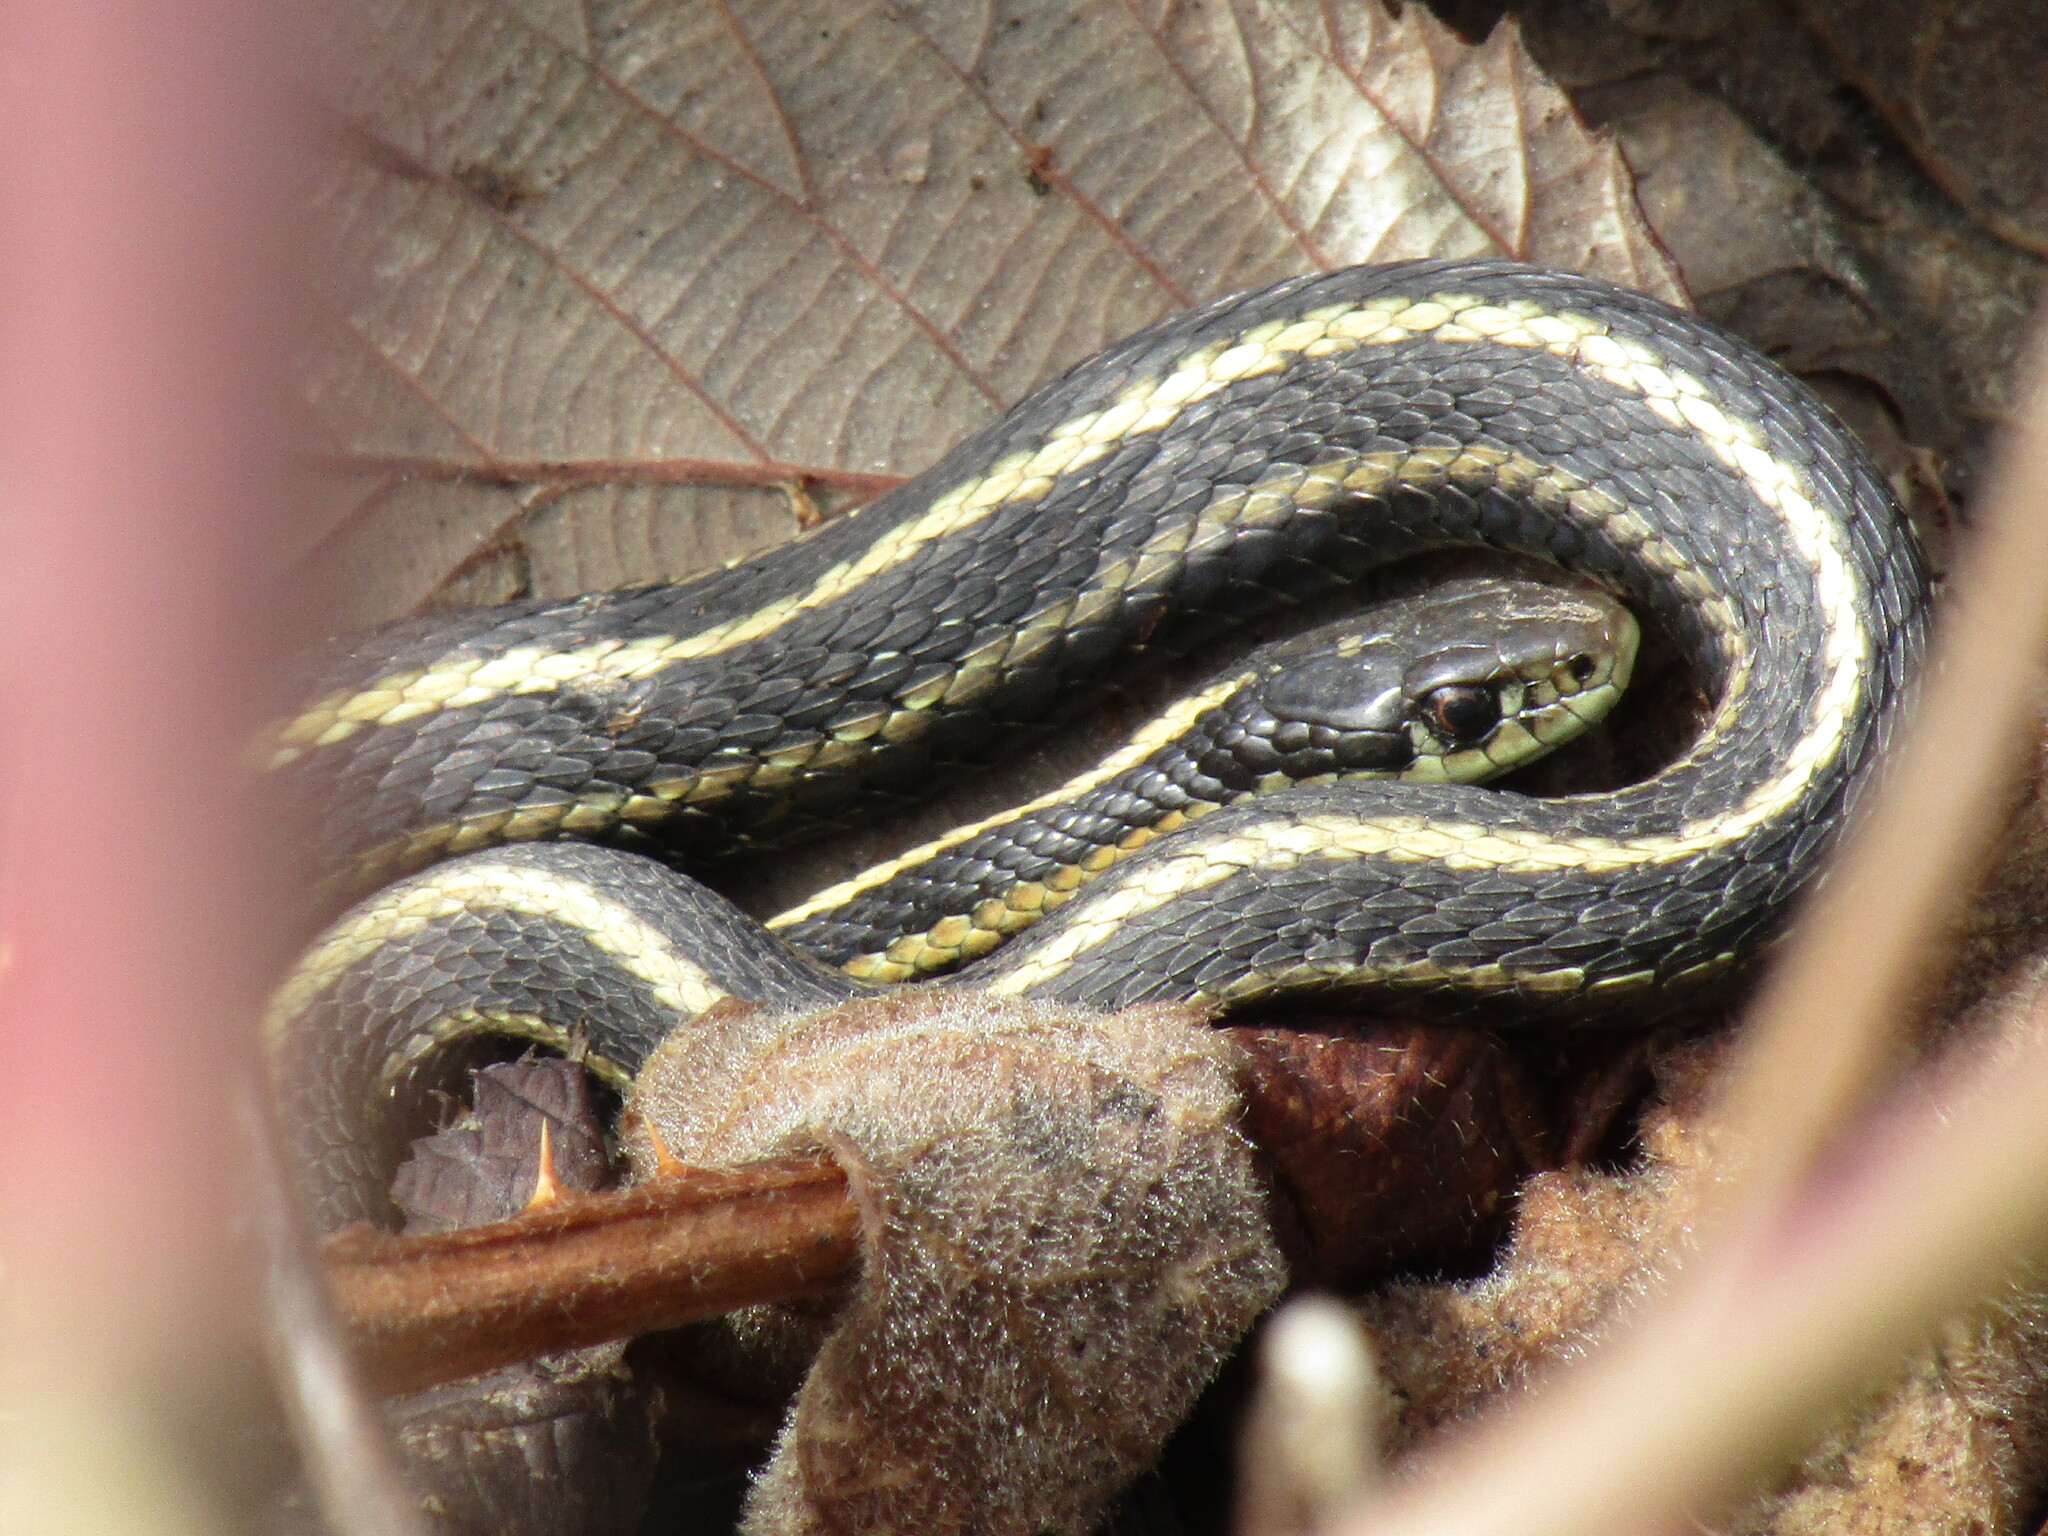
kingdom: Animalia
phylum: Chordata
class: Squamata
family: Colubridae
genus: Thamnophis
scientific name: Thamnophis ordinoides
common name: Northwestern garter snake
